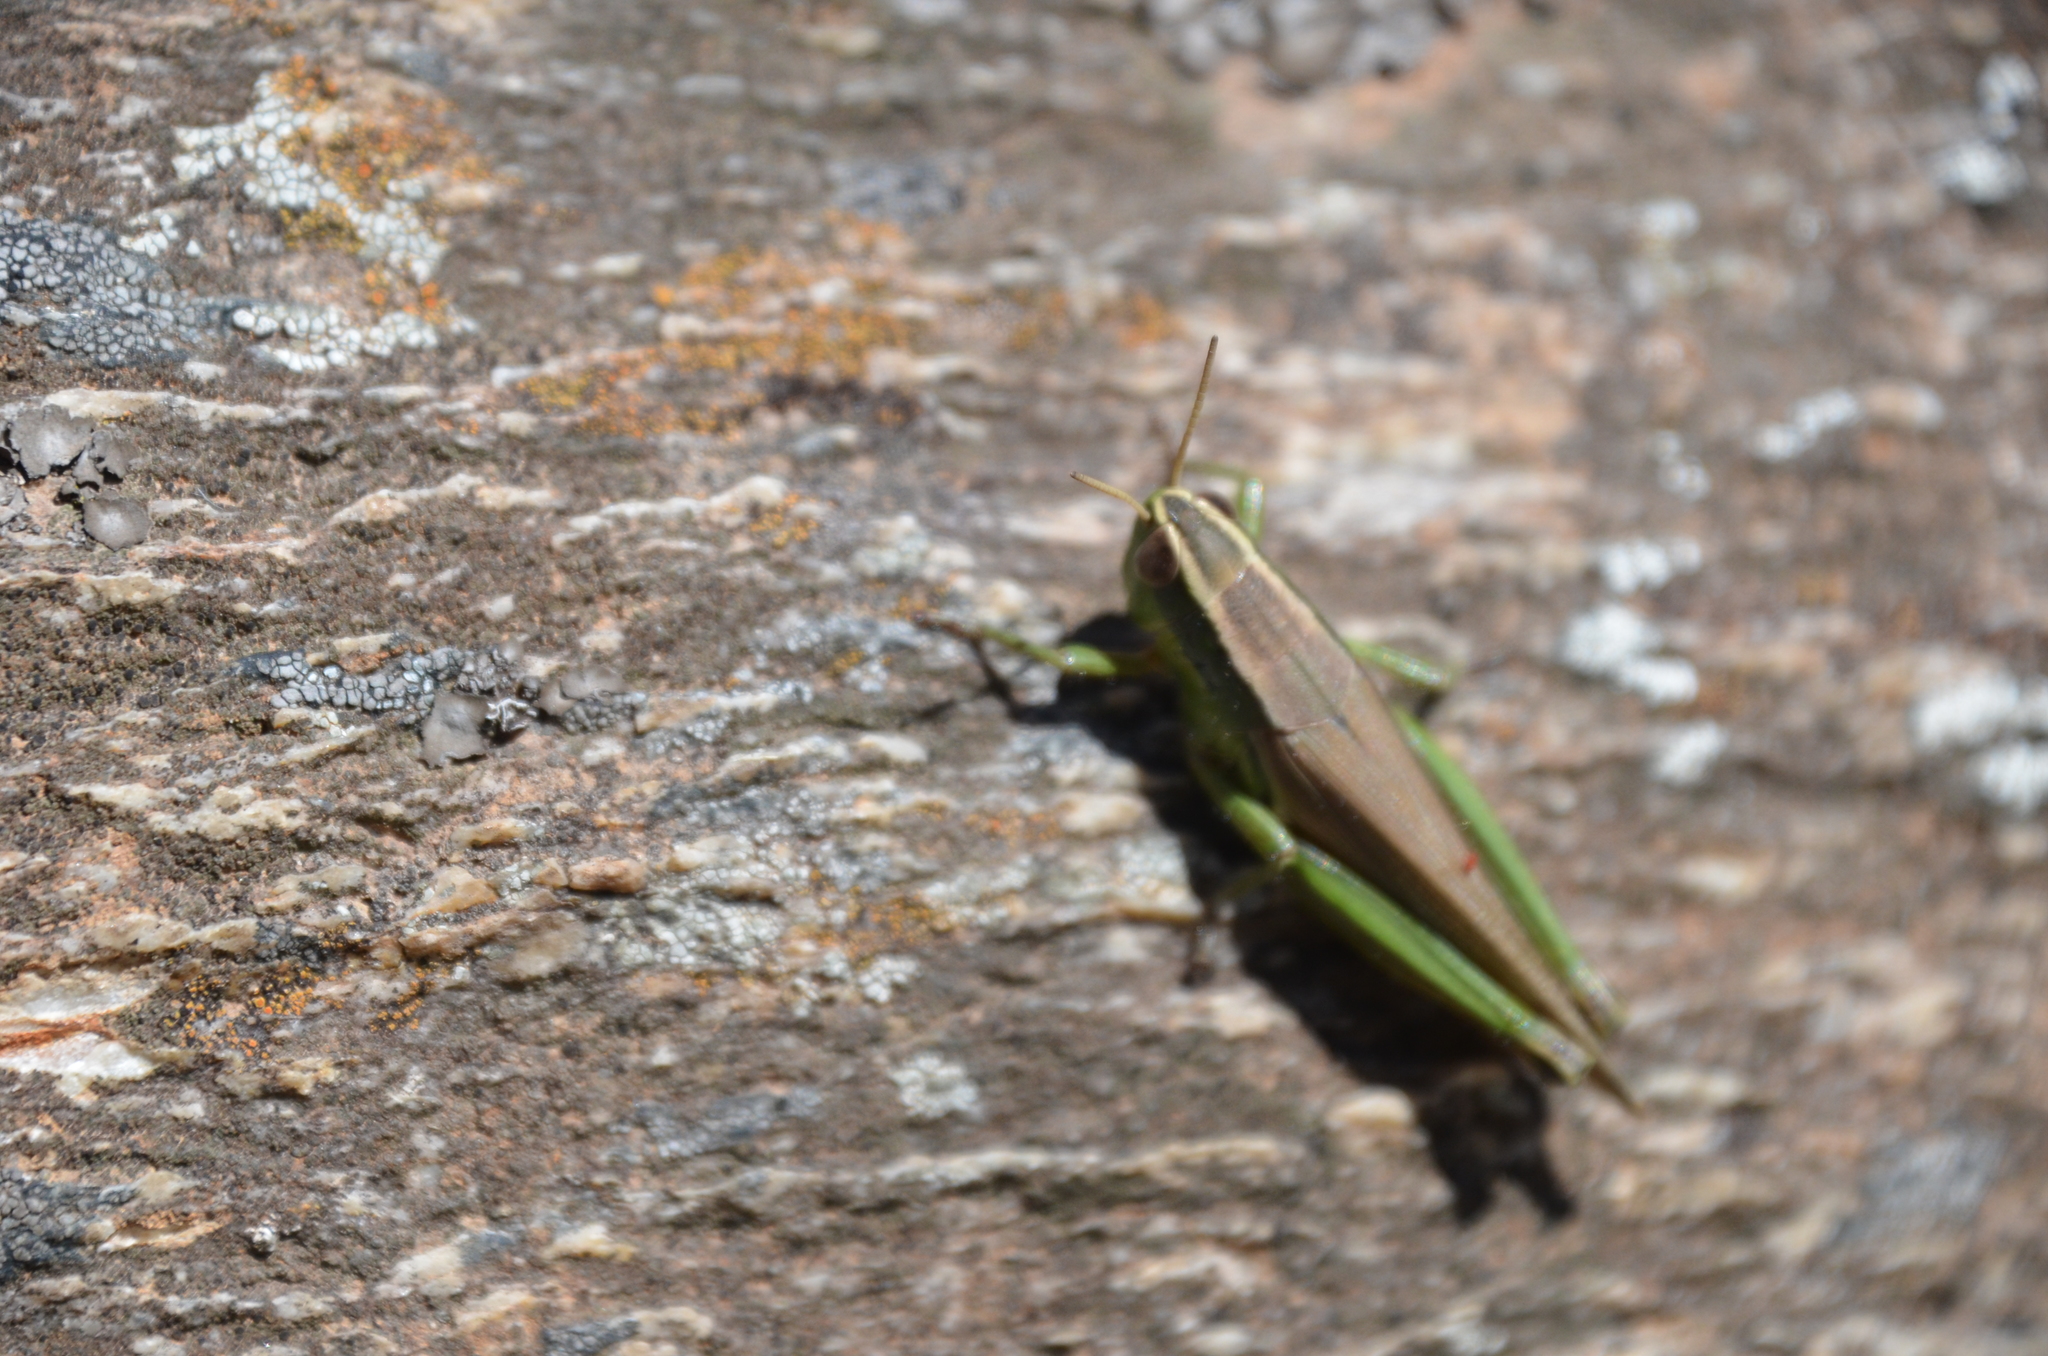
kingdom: Animalia
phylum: Arthropoda
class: Insecta
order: Orthoptera
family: Acrididae
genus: Scotussa
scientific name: Scotussa cliens
